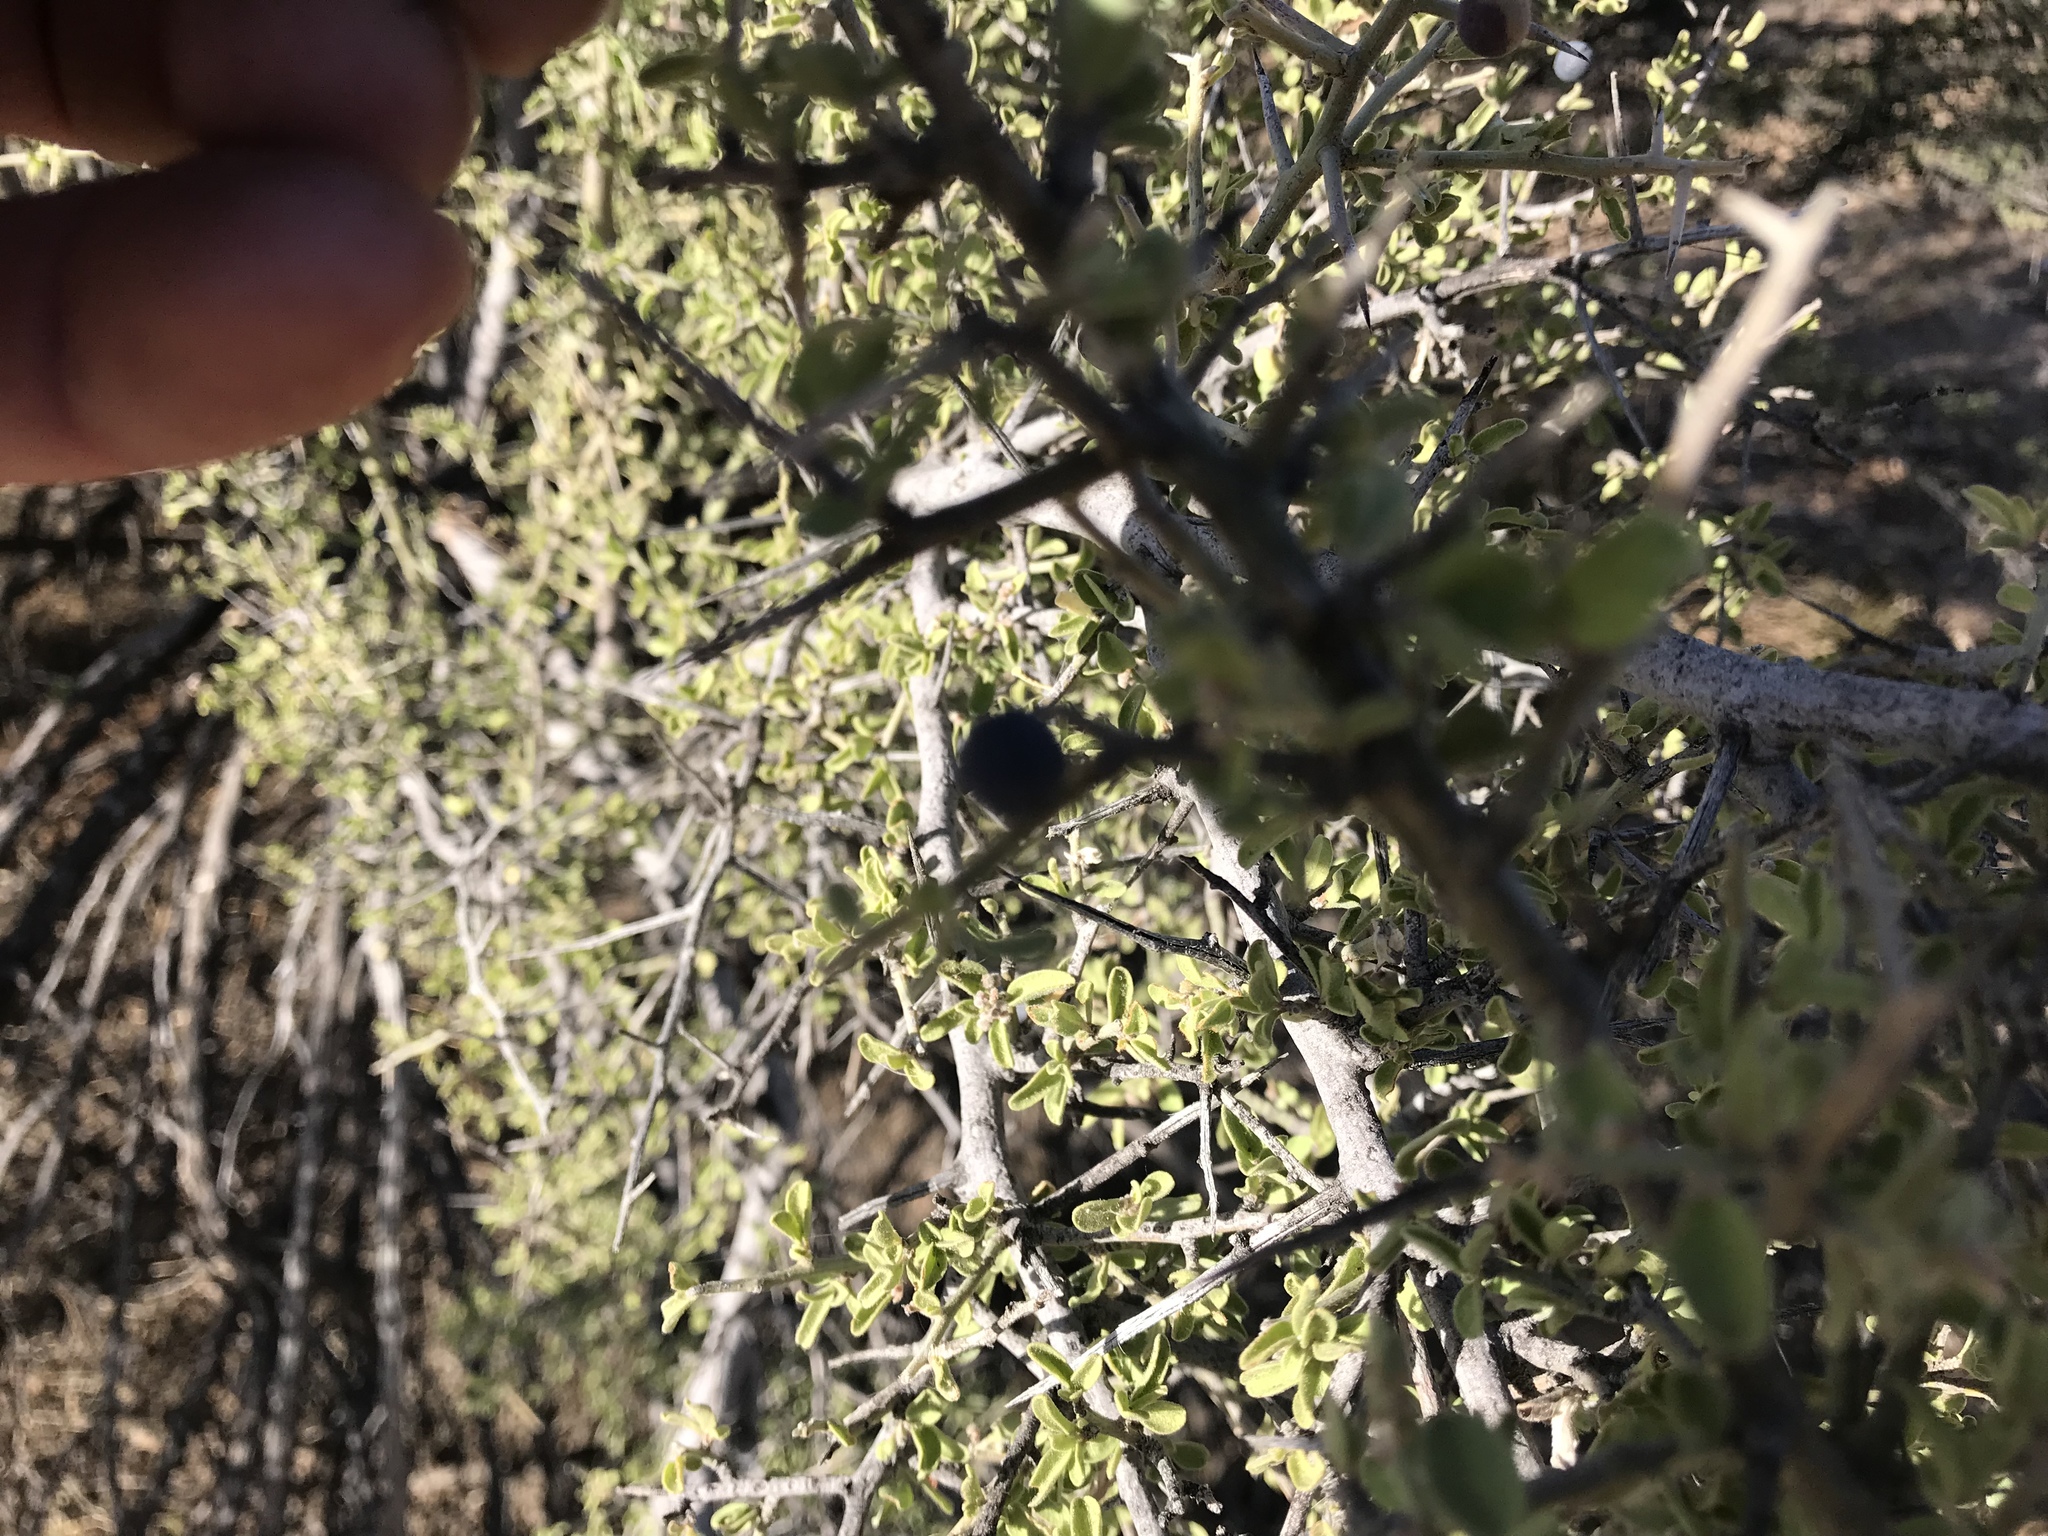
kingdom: Plantae
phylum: Tracheophyta
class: Magnoliopsida
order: Rosales
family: Rhamnaceae
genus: Sarcomphalus
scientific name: Sarcomphalus obtusifolius
